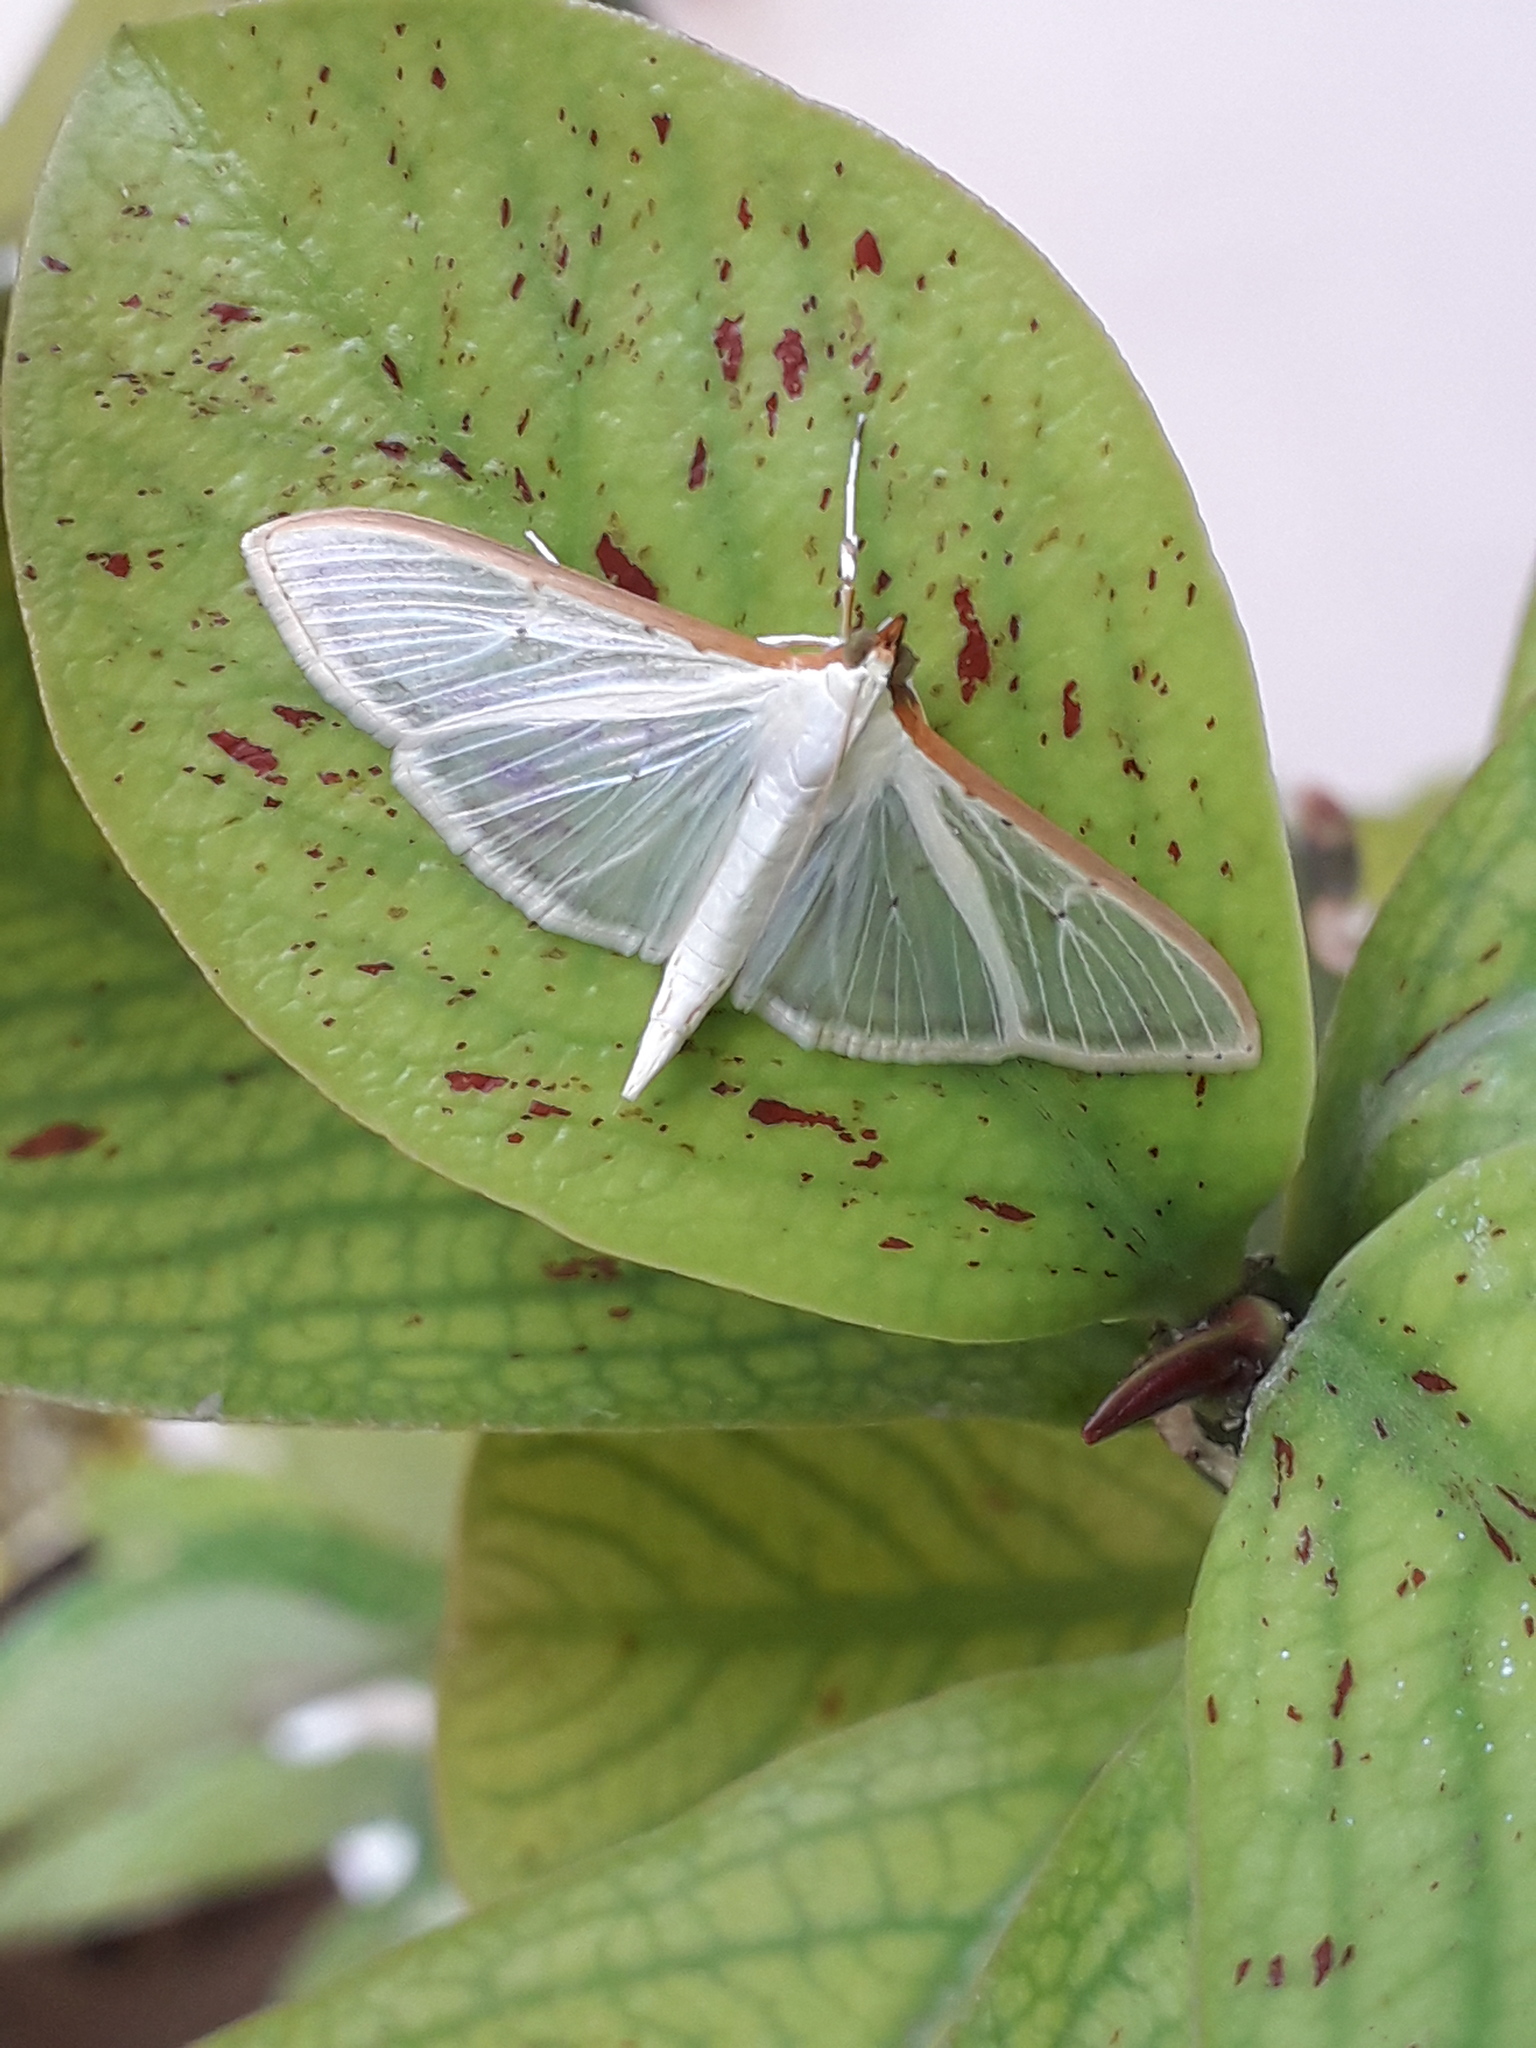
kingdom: Animalia
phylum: Arthropoda
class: Insecta
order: Lepidoptera
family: Crambidae
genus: Palpita
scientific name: Palpita quadristigmalis
